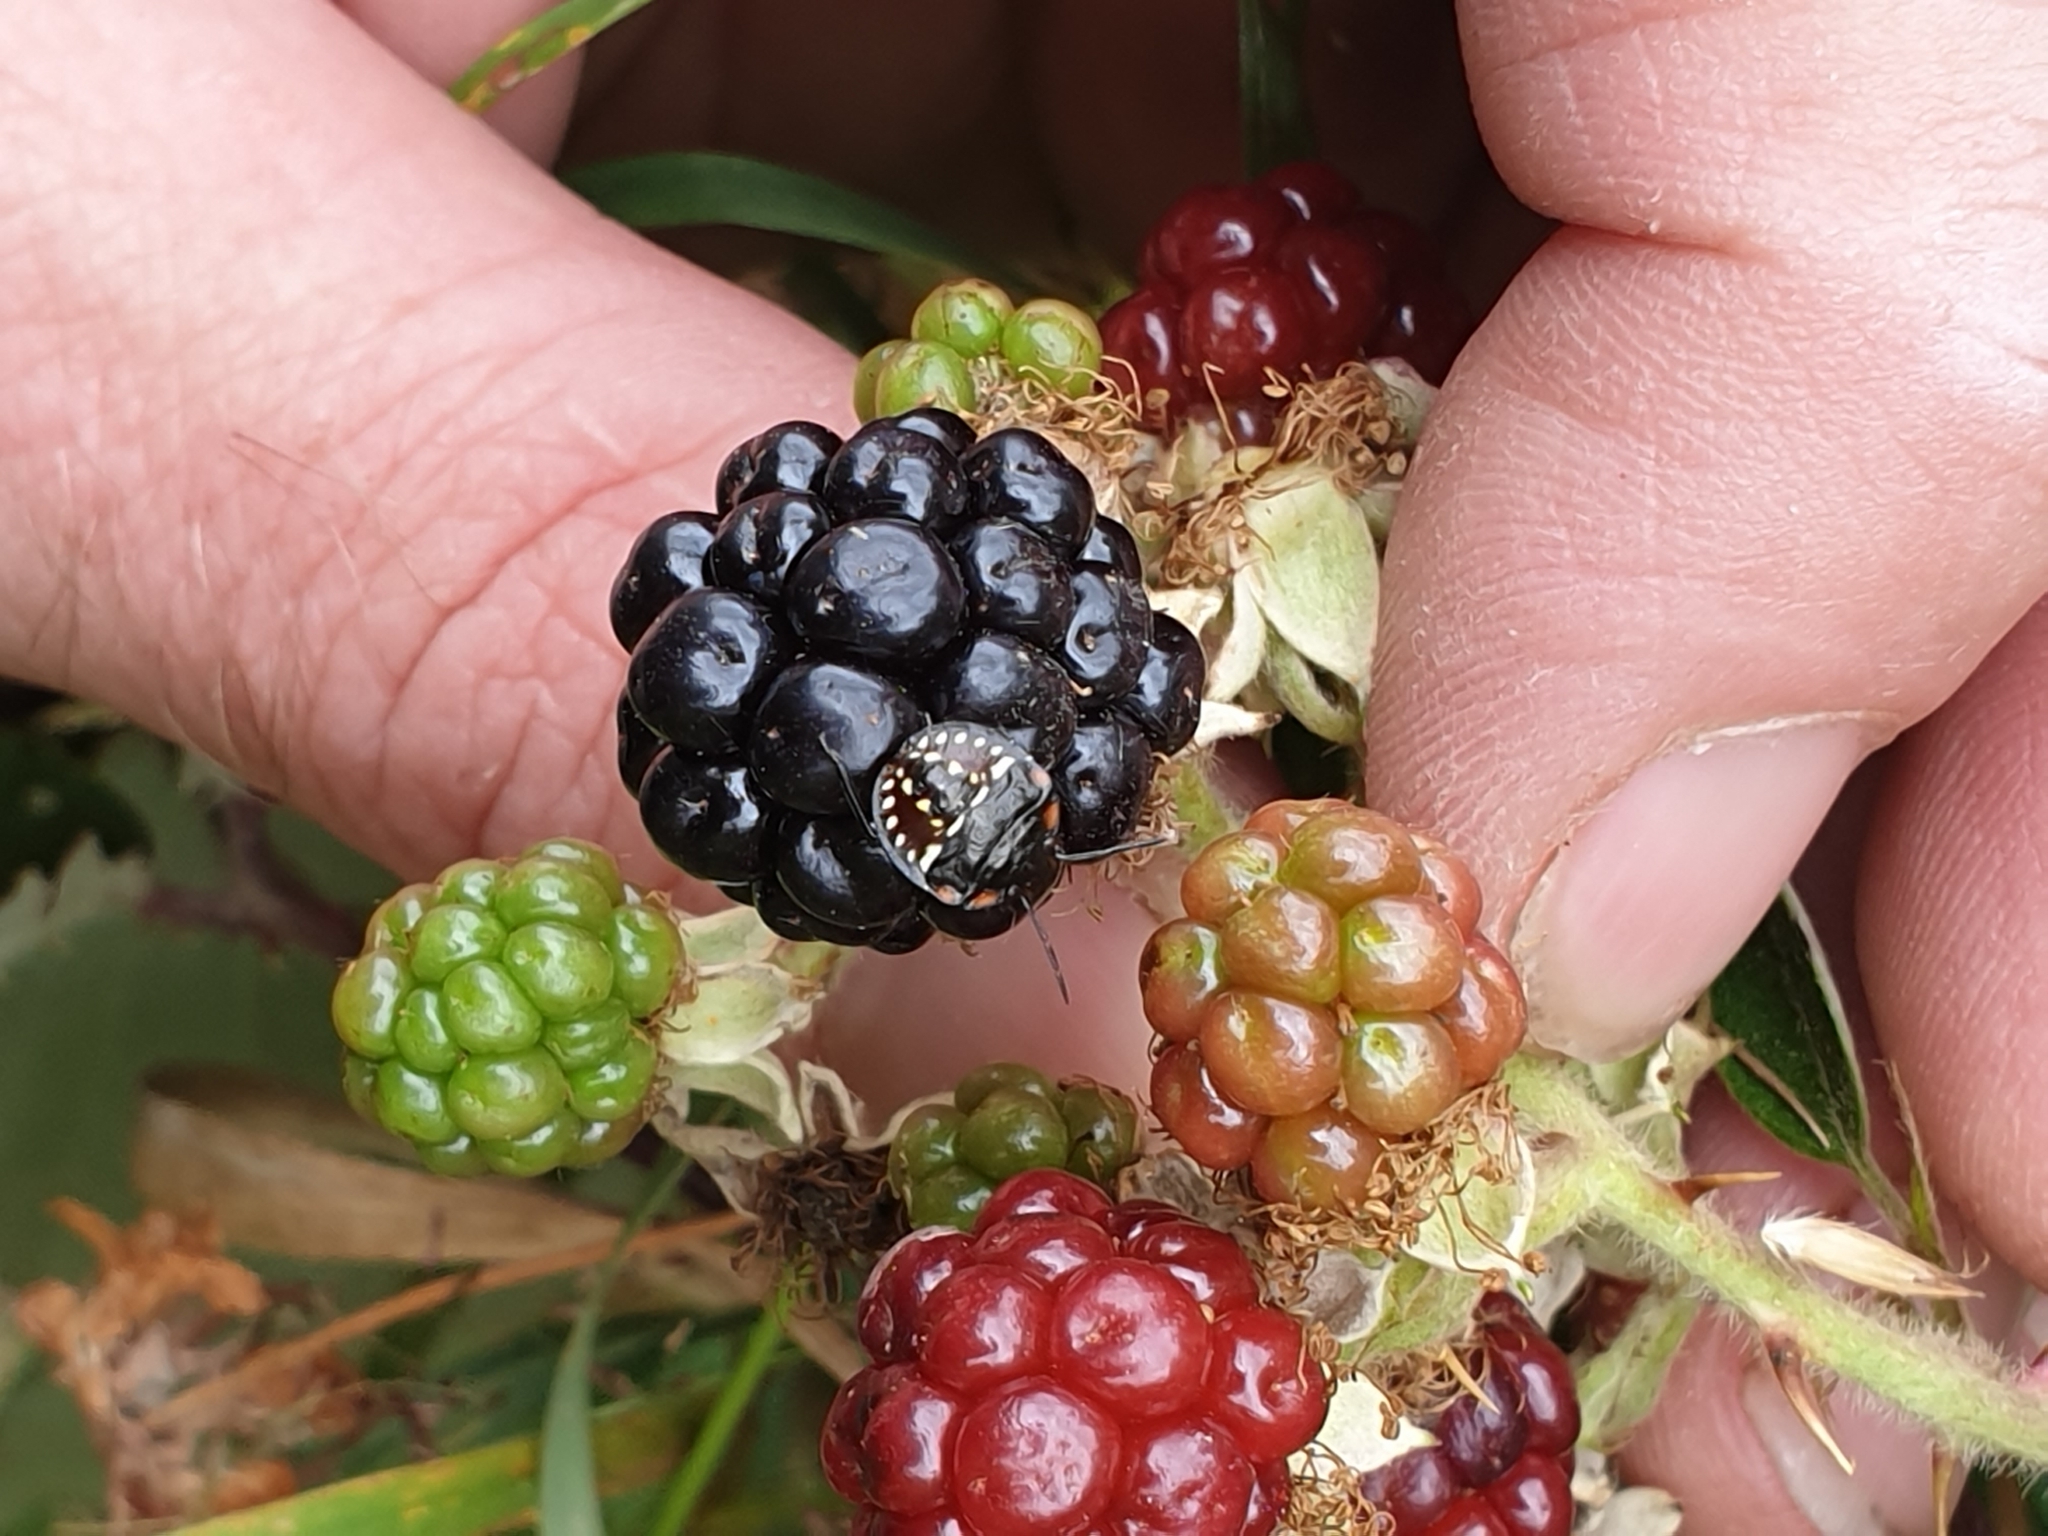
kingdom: Animalia
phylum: Arthropoda
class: Insecta
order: Hemiptera
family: Pentatomidae
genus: Nezara
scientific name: Nezara viridula
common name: Southern green stink bug
